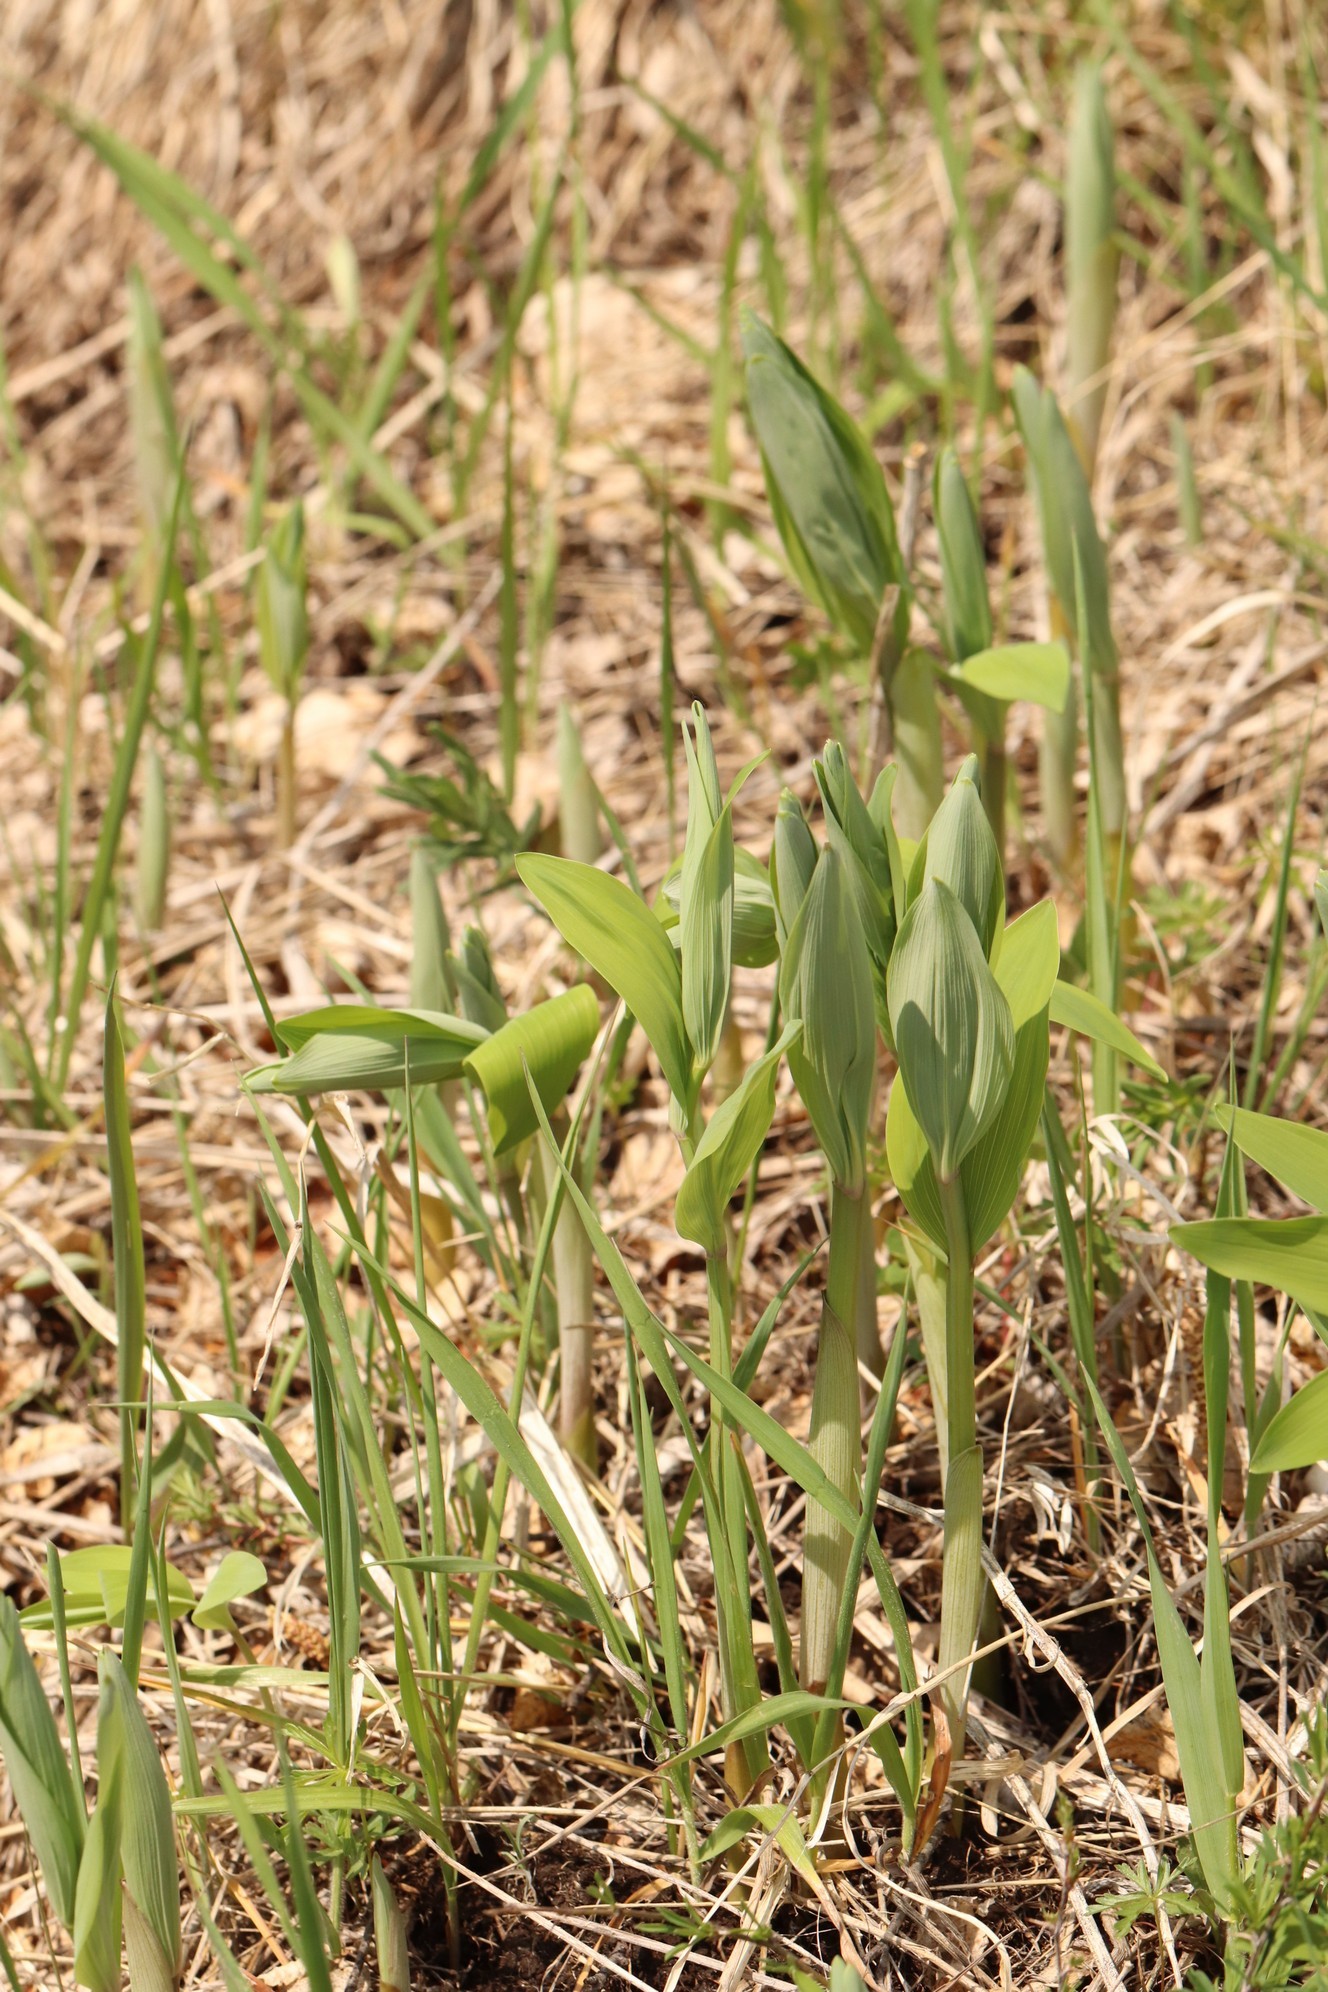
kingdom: Plantae
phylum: Tracheophyta
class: Liliopsida
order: Asparagales
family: Asparagaceae
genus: Polygonatum
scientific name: Polygonatum odoratum
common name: Angular solomon's-seal
